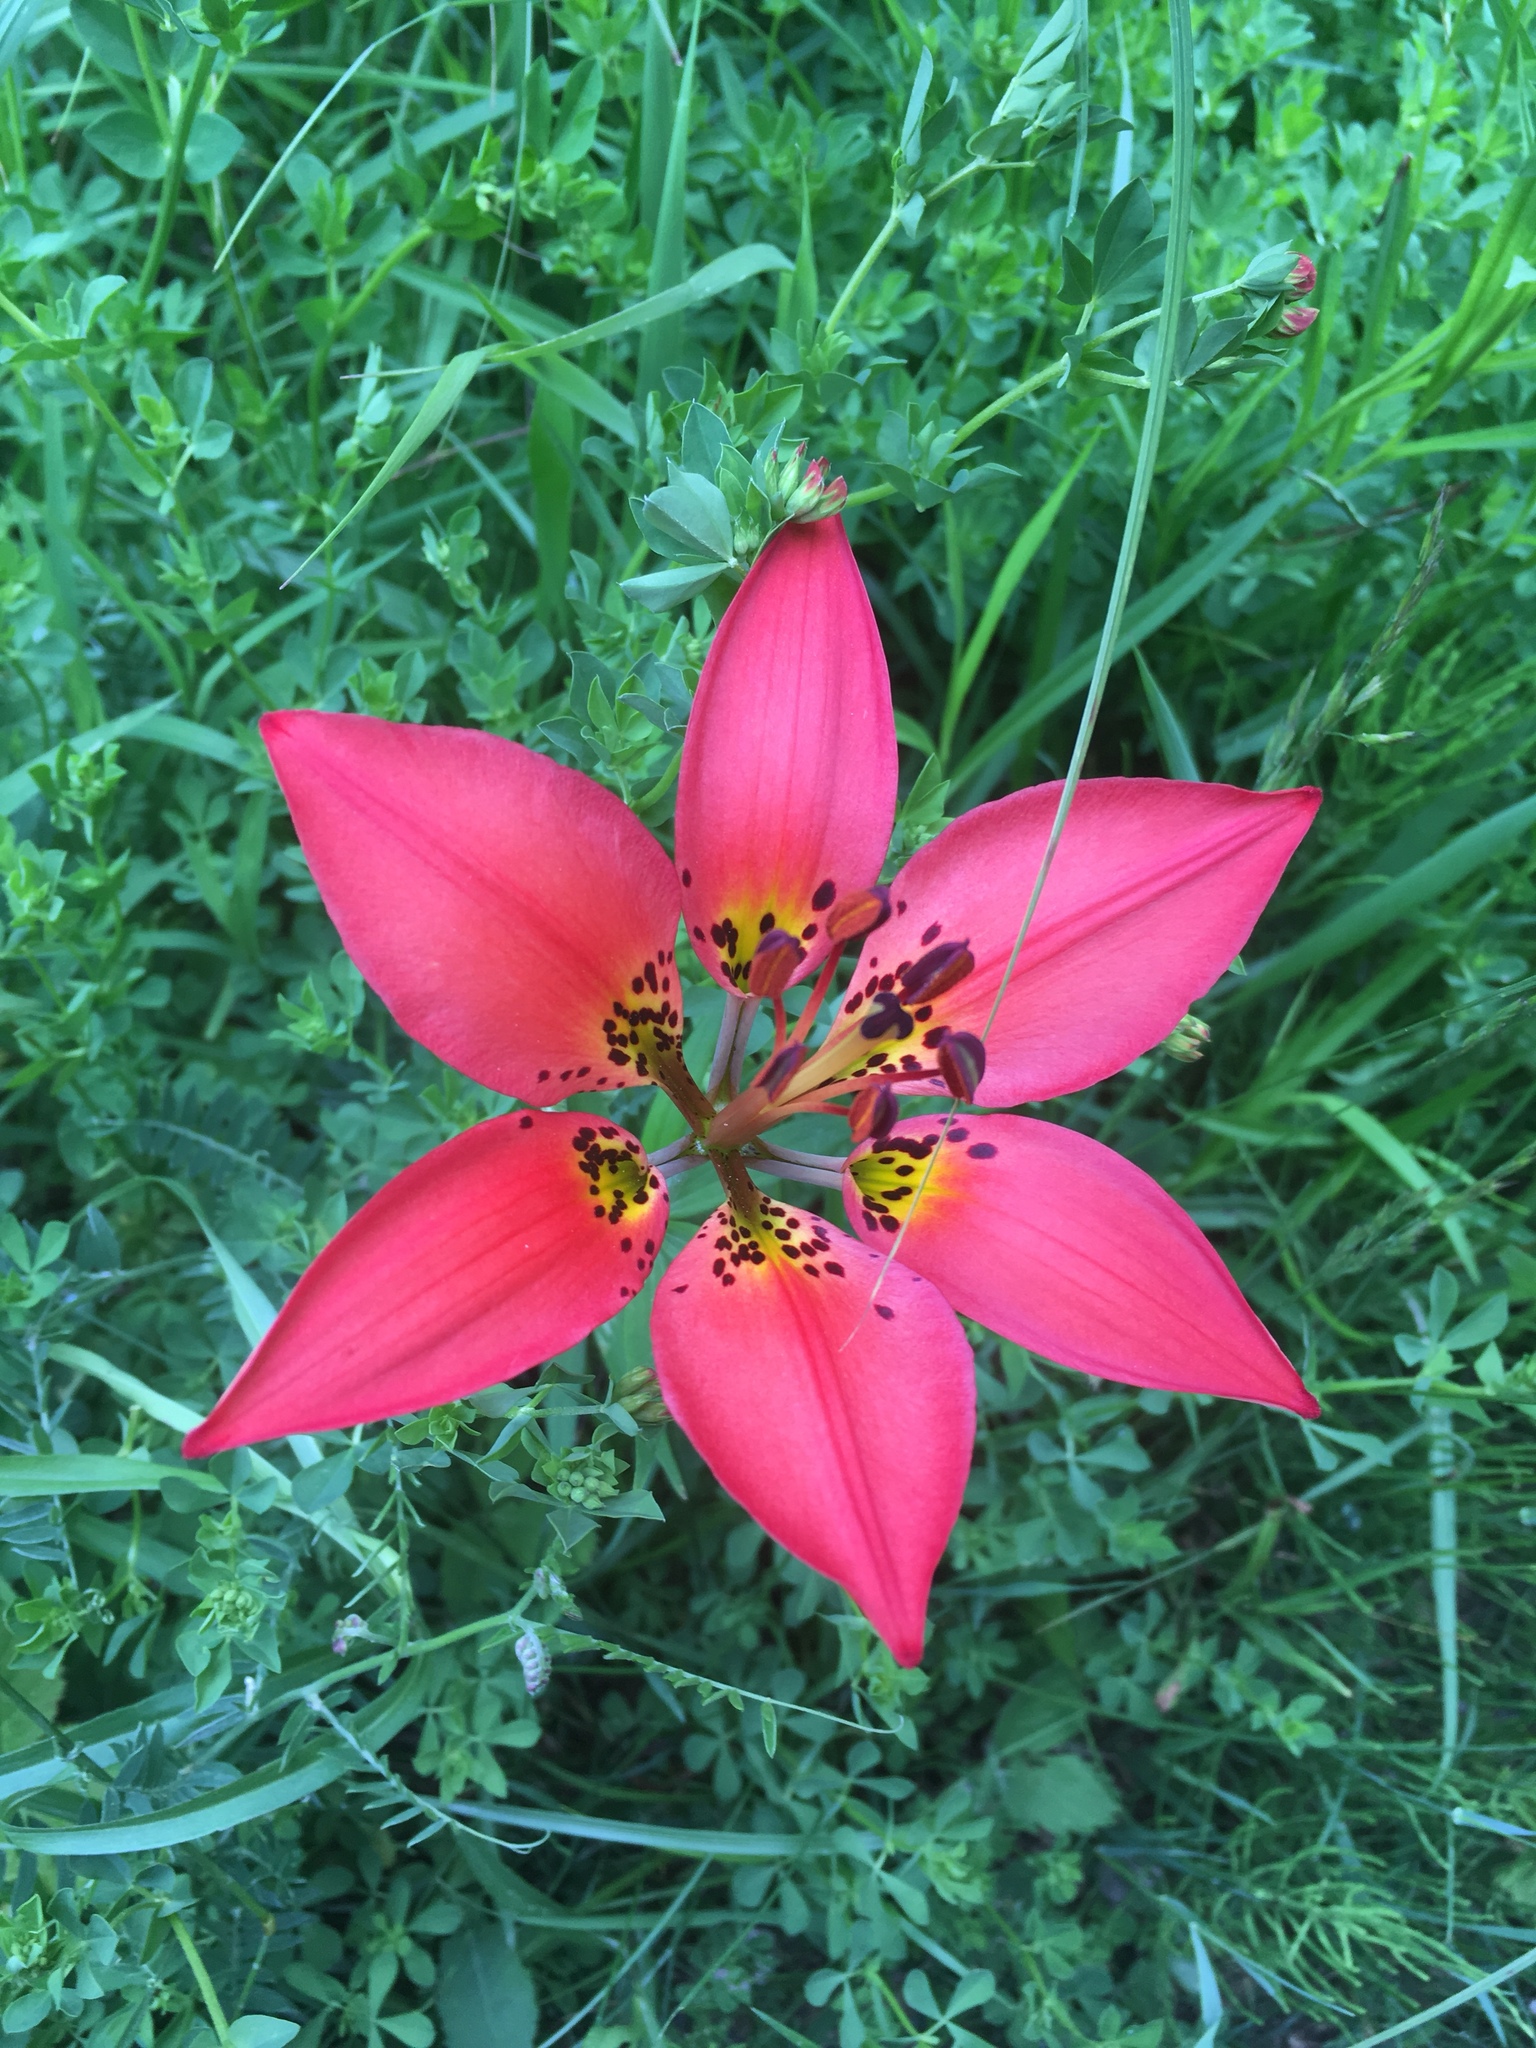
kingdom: Plantae
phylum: Tracheophyta
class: Liliopsida
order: Liliales
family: Liliaceae
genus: Lilium
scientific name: Lilium philadelphicum
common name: Red lily
